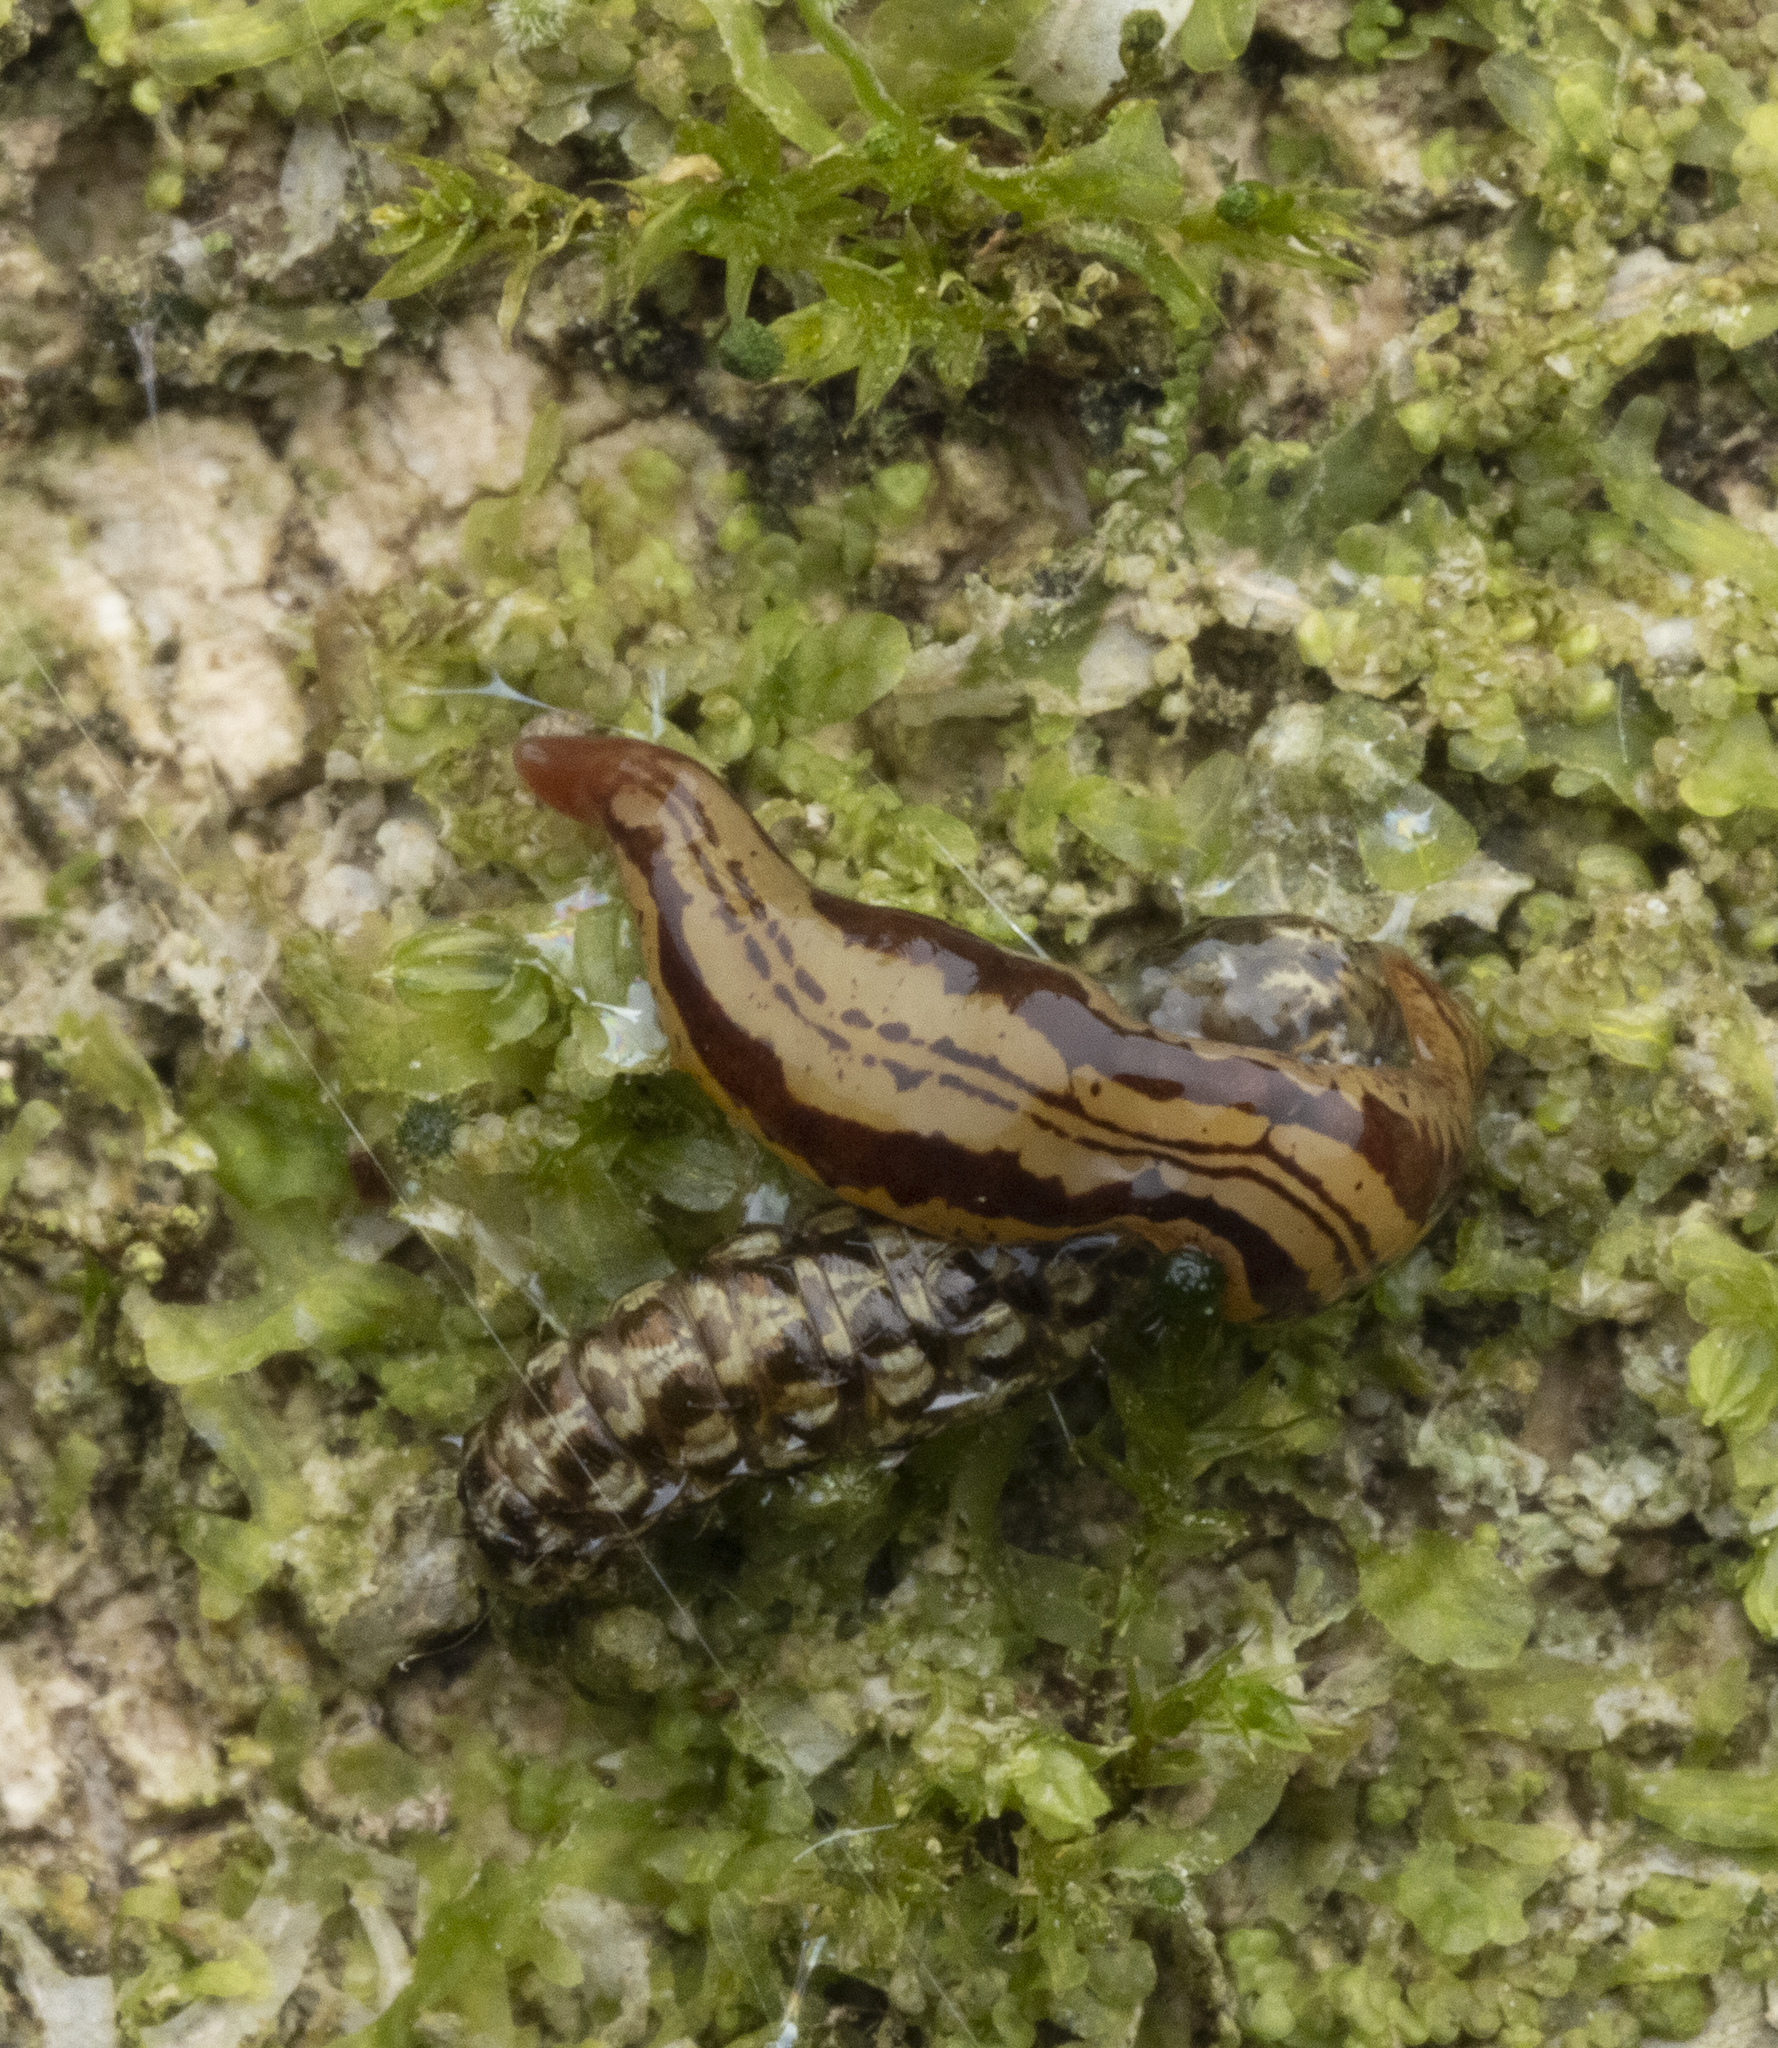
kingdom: Animalia
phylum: Platyhelminthes
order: Tricladida
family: Geoplanidae
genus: Artioposthia
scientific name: Artioposthia polyadoides
